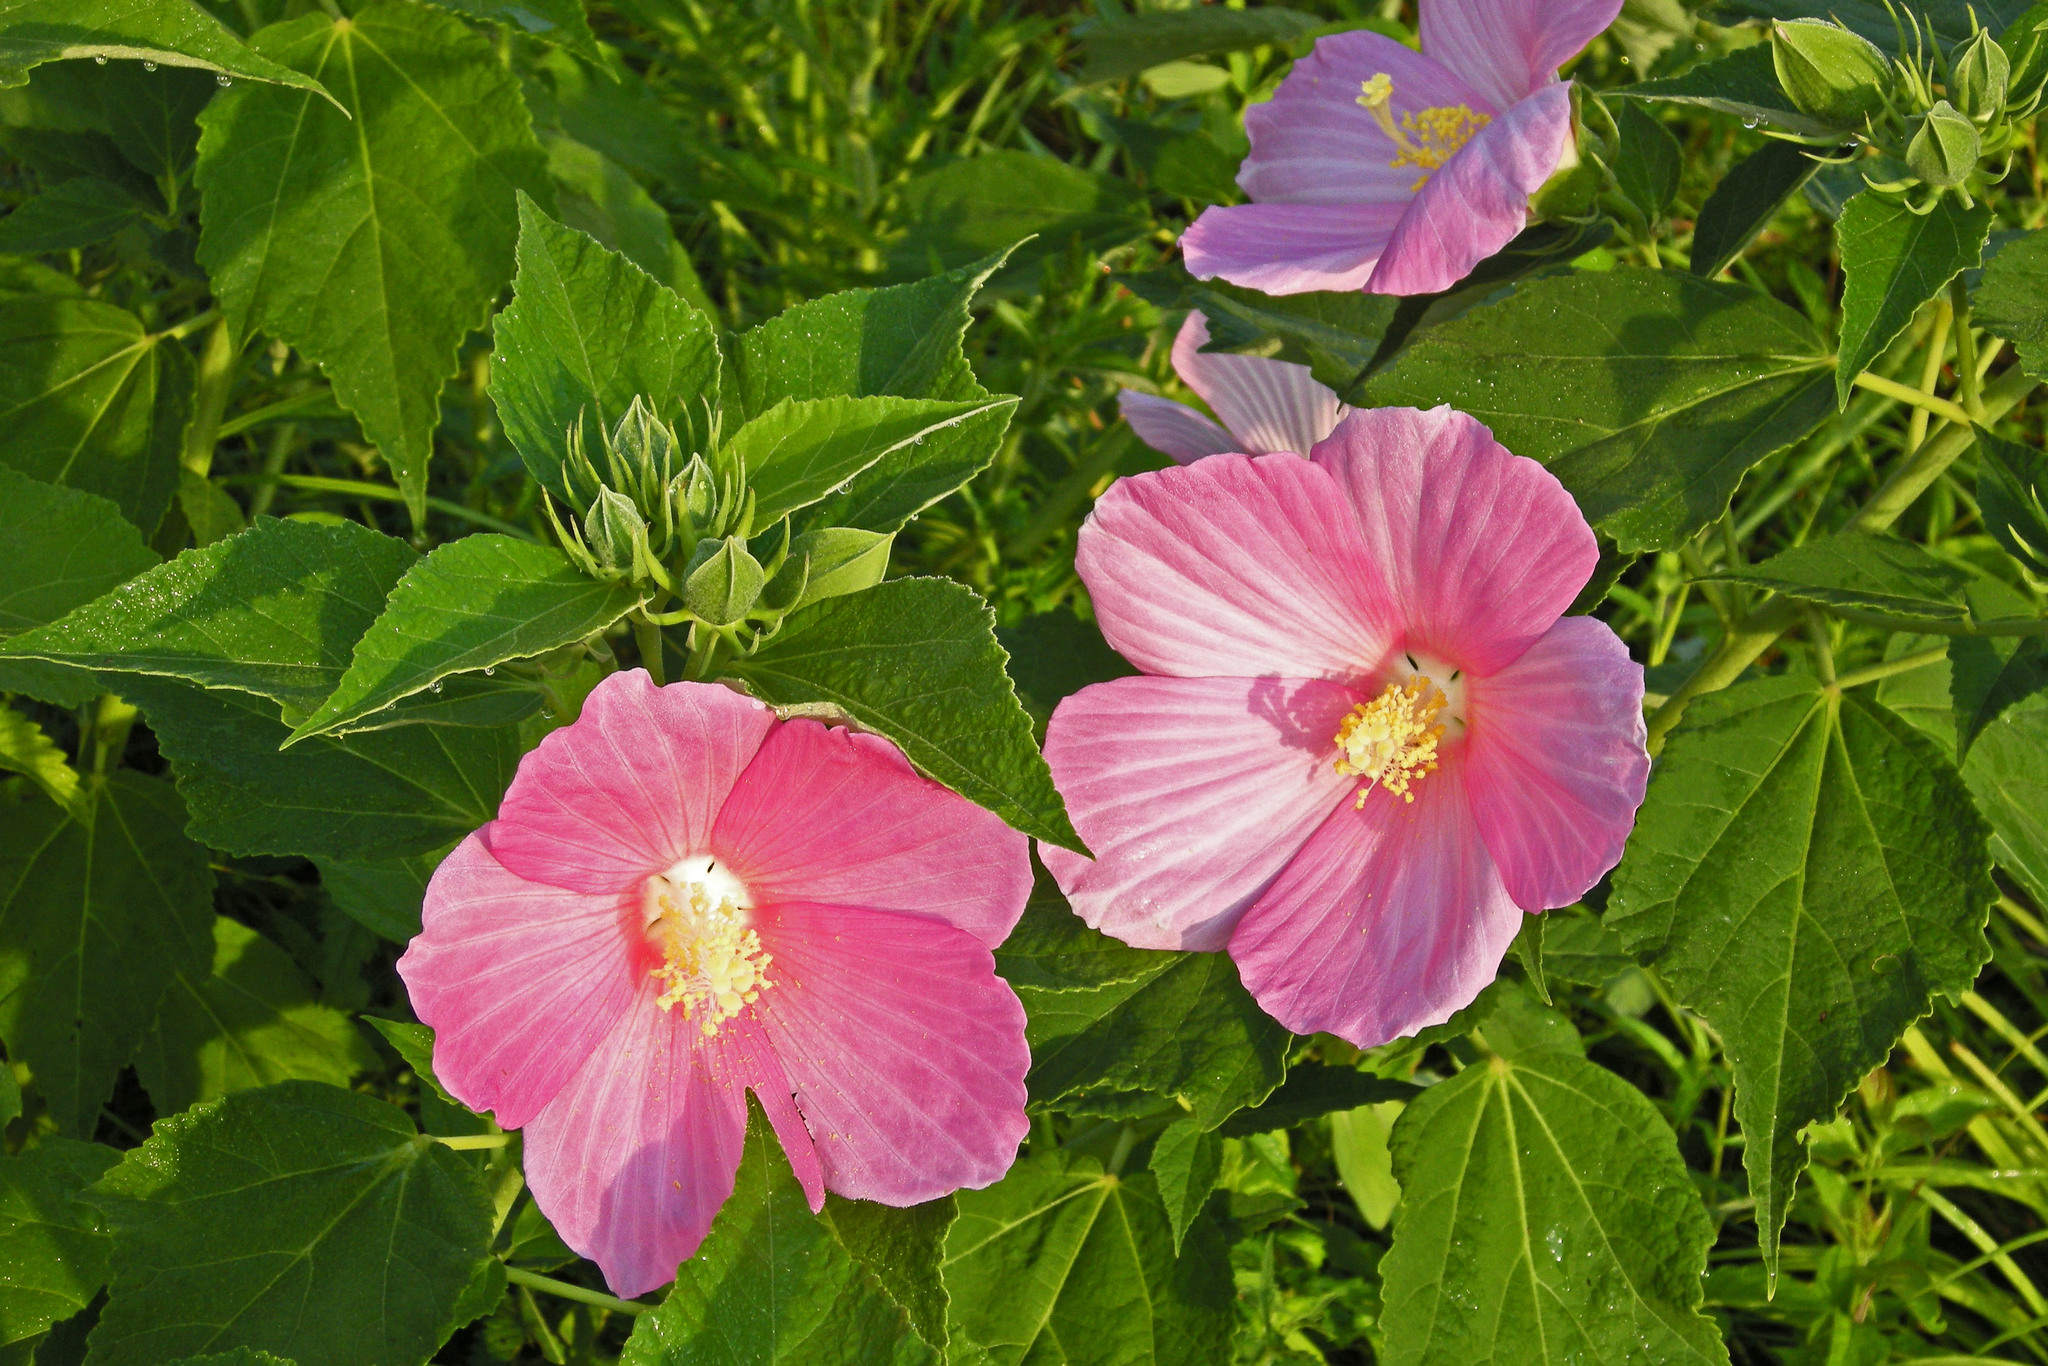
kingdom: Plantae
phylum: Tracheophyta
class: Magnoliopsida
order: Malvales
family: Malvaceae
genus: Hibiscus
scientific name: Hibiscus moscheutos
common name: Common rose-mallow
